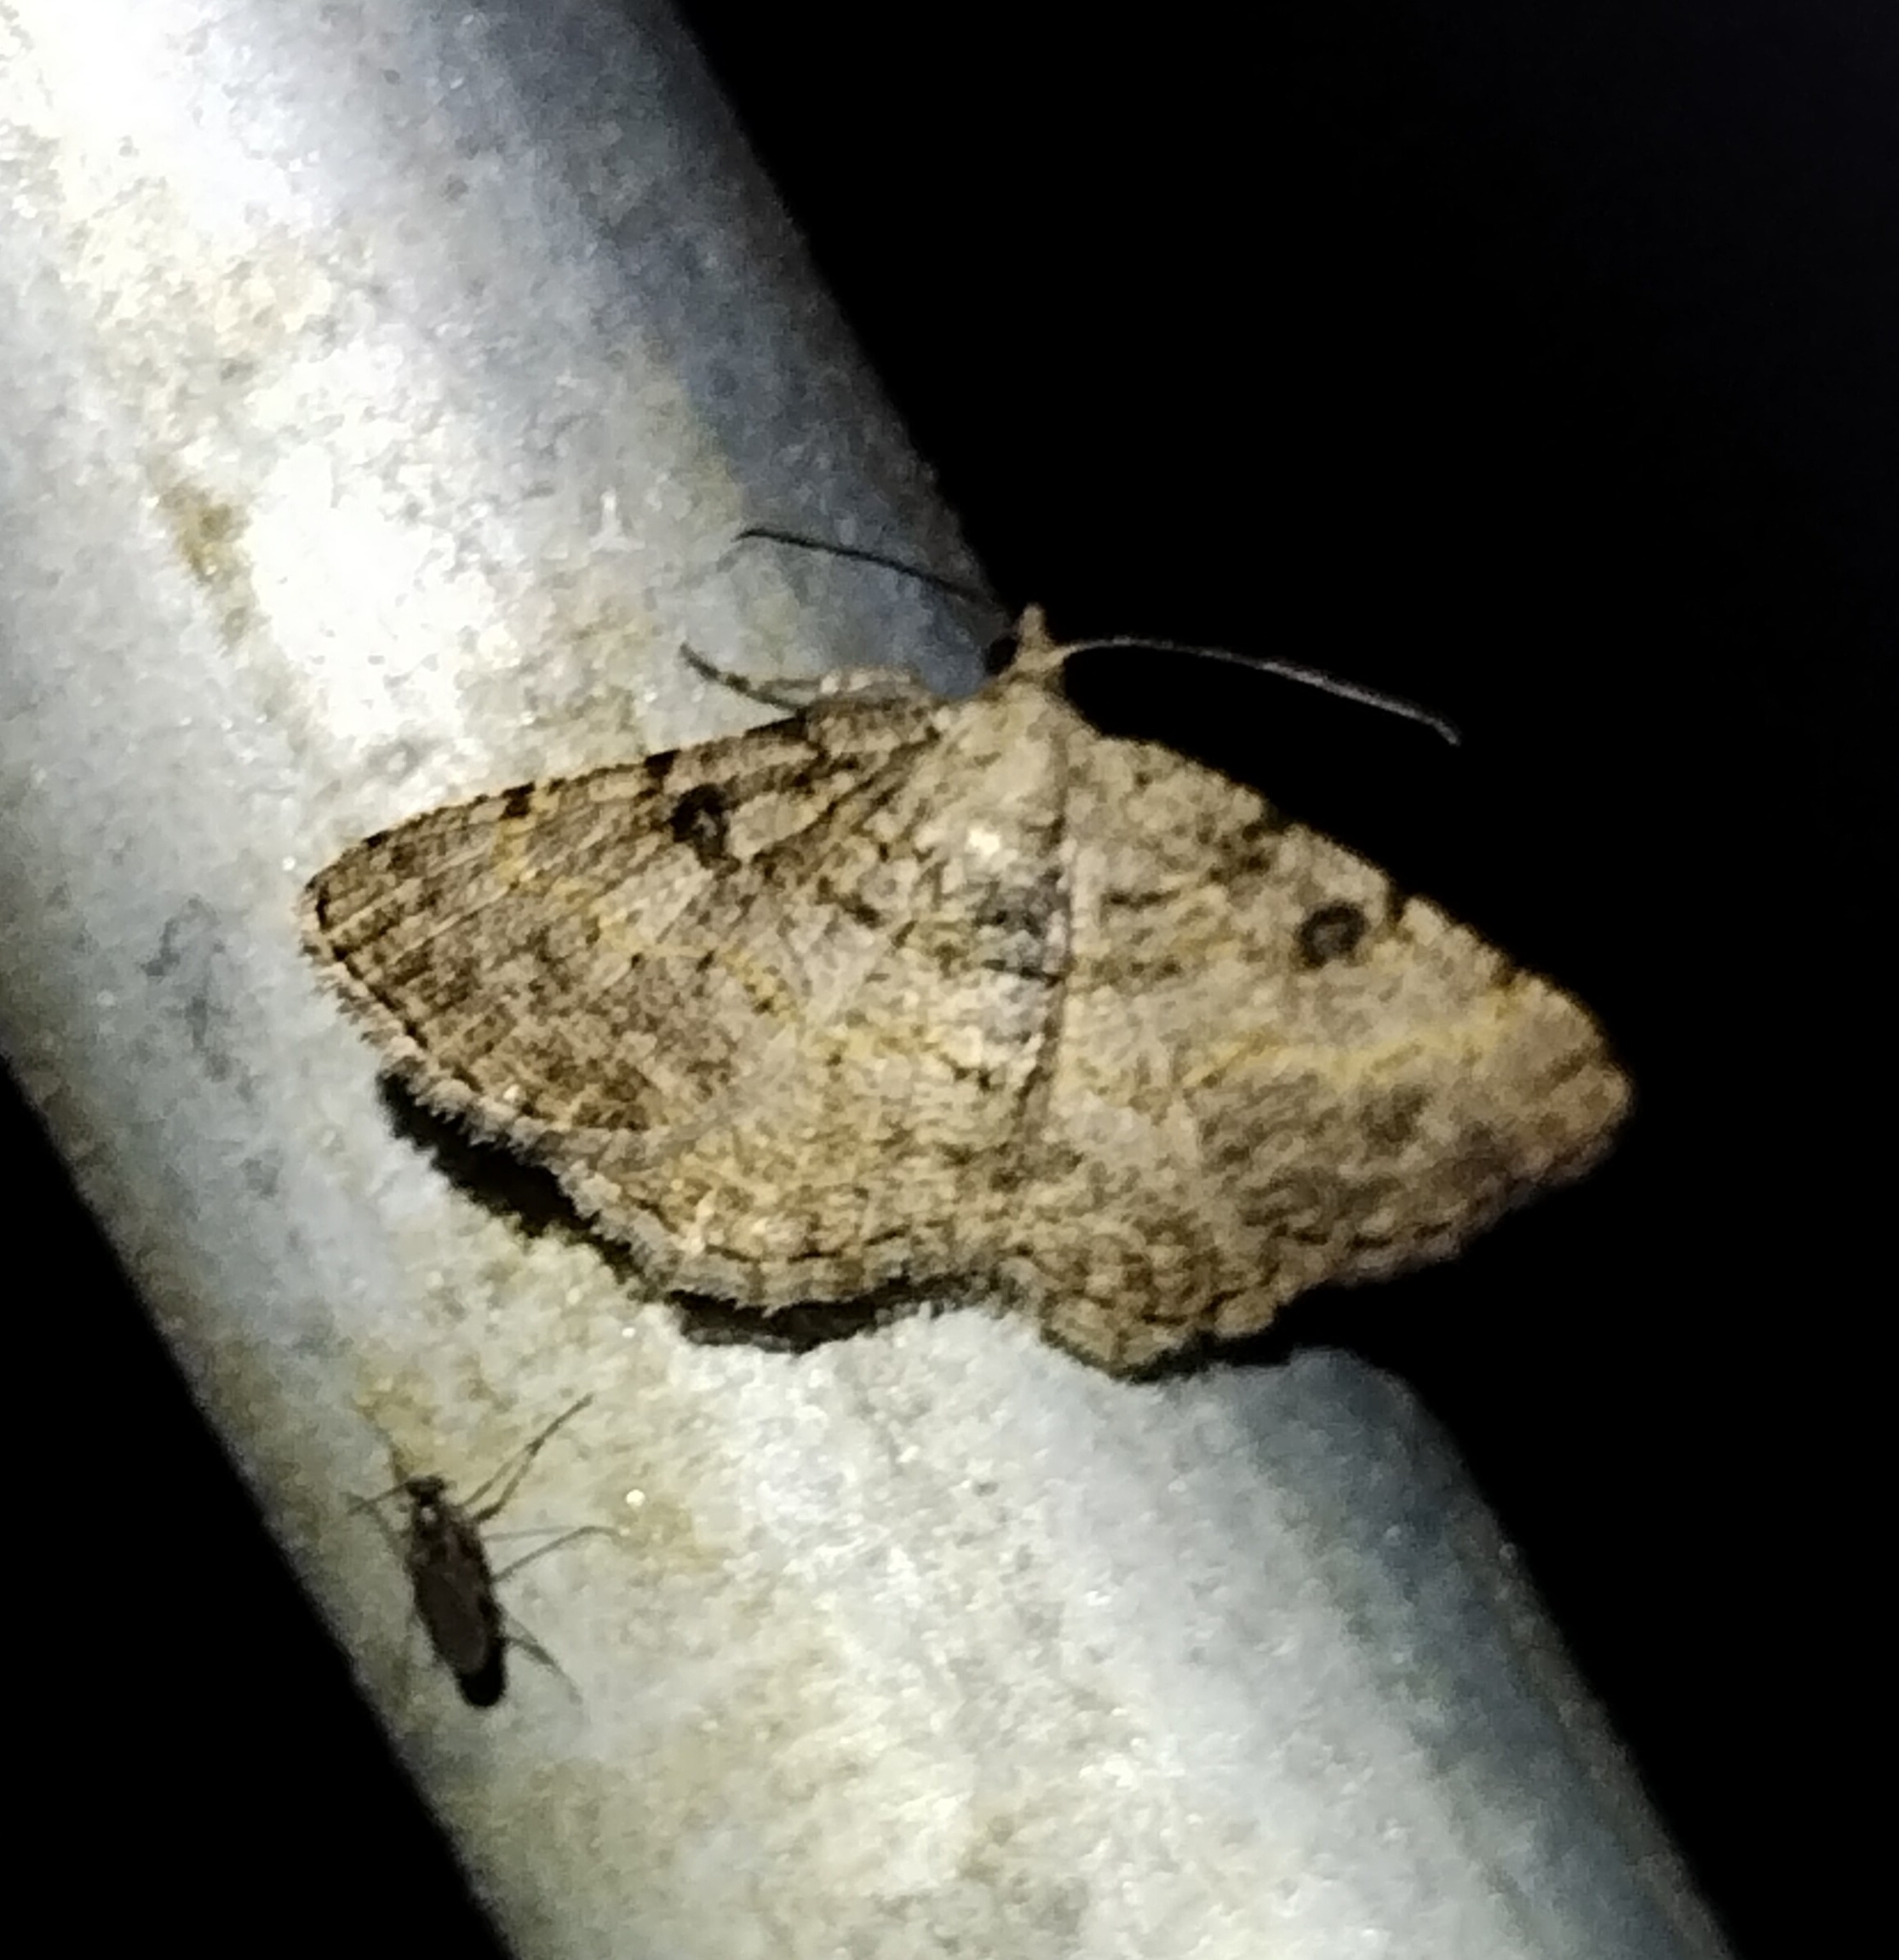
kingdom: Animalia
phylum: Arthropoda
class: Insecta
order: Lepidoptera
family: Geometridae
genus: Digrammia
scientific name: Digrammia gnophosaria
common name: Hollow-spotted angle
